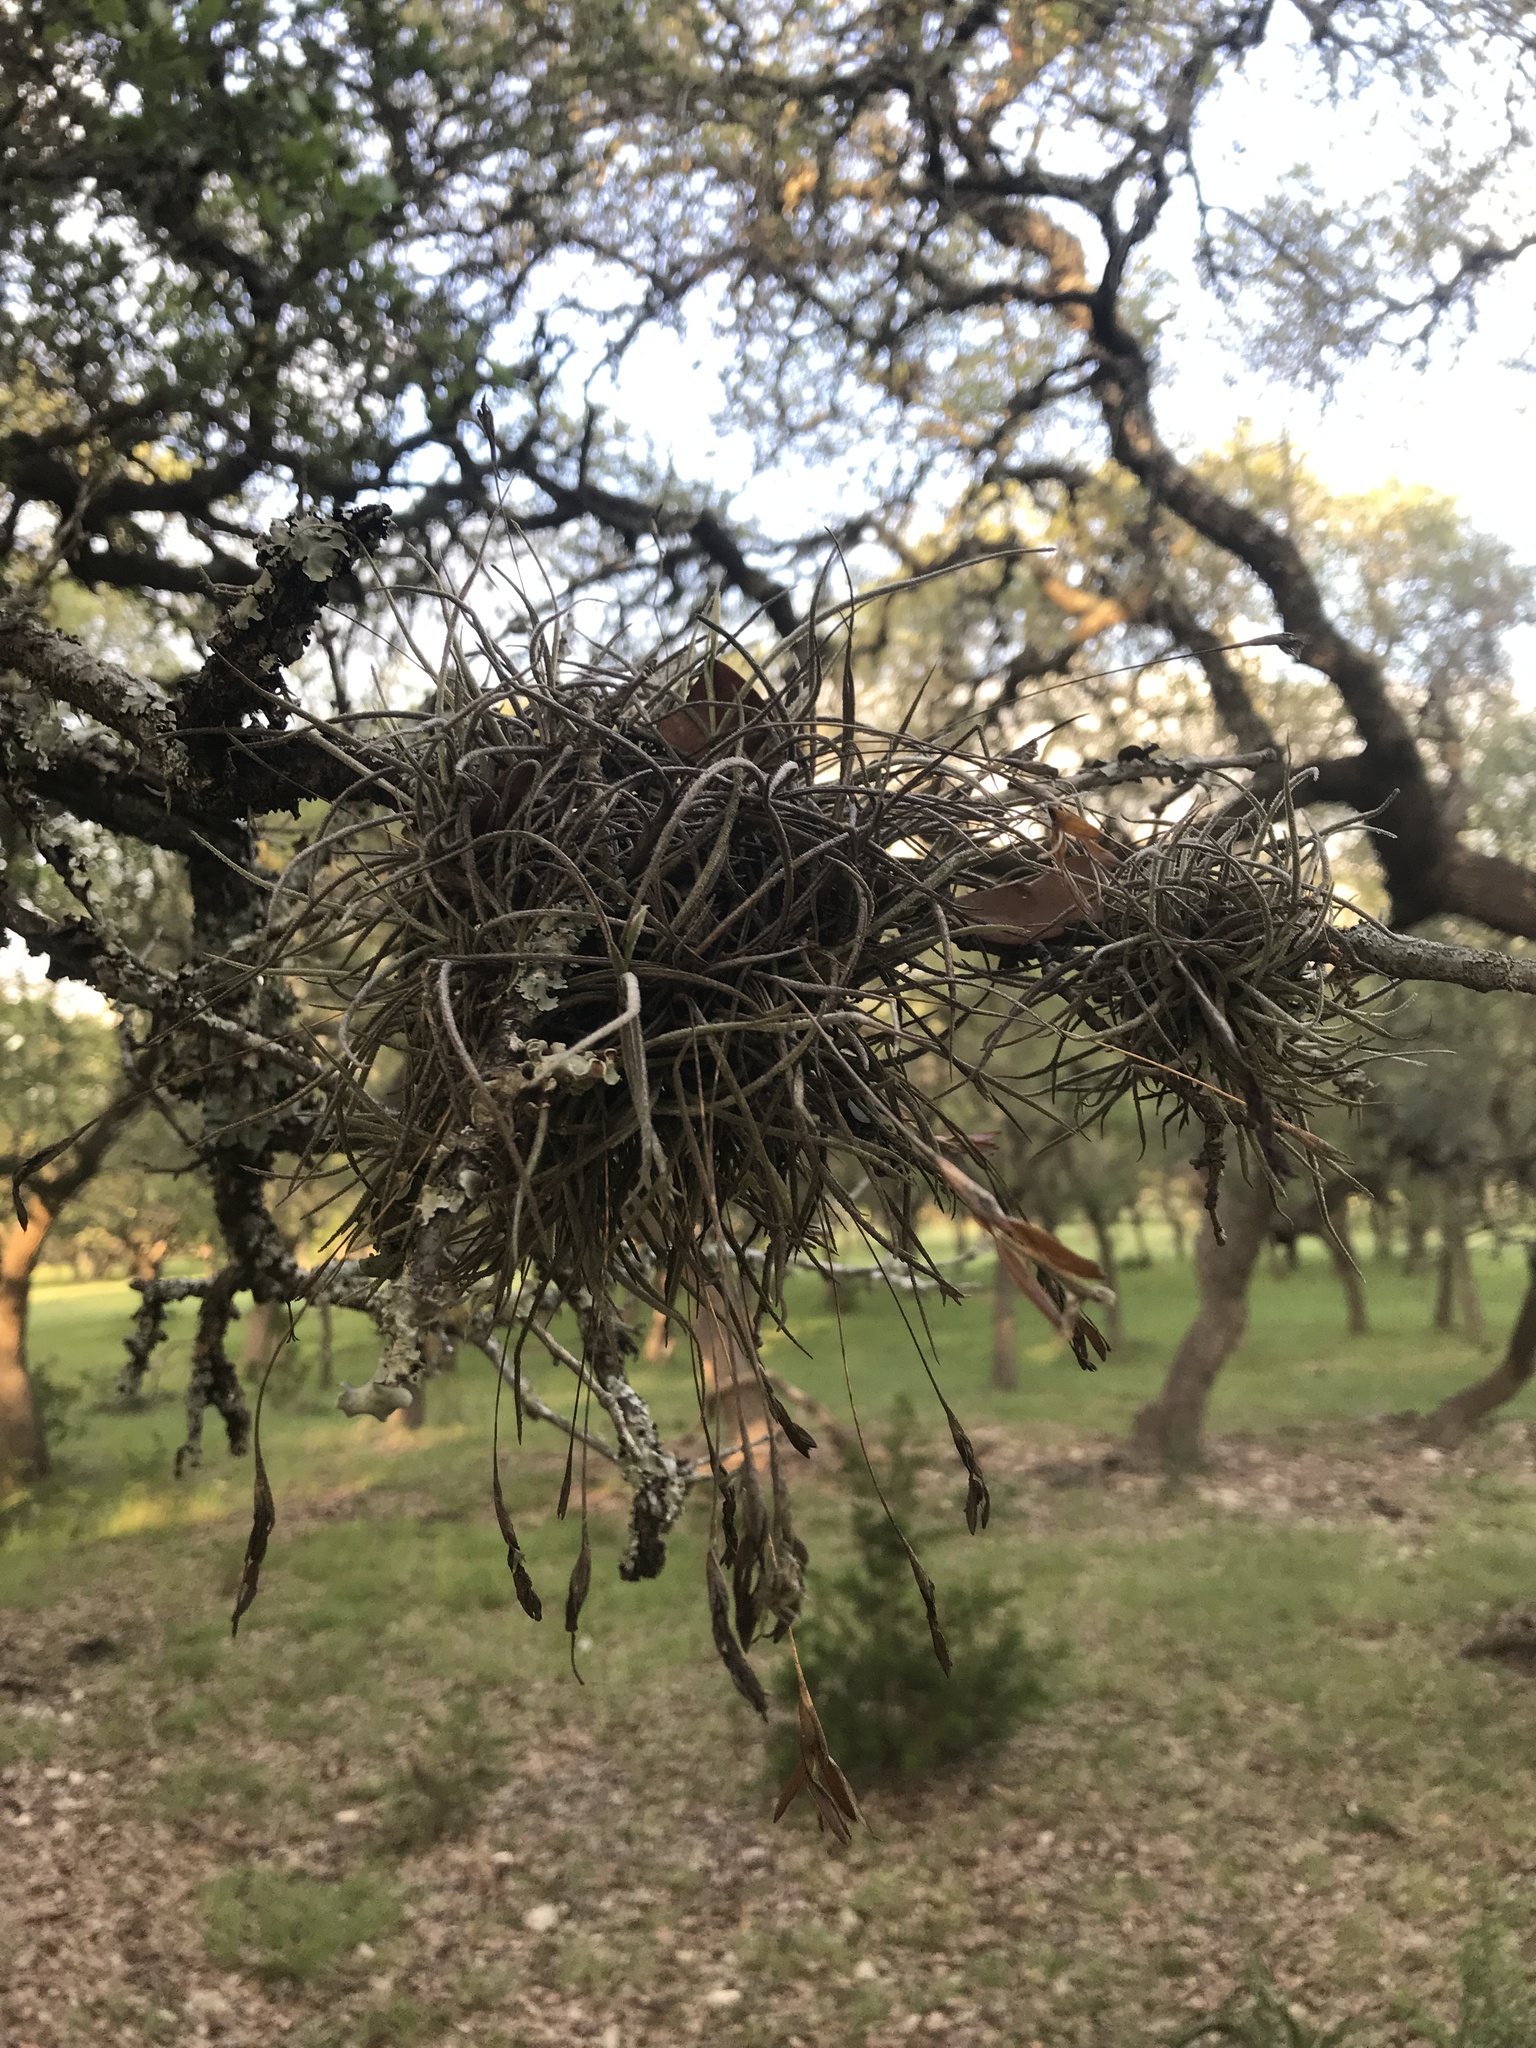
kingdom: Plantae
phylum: Tracheophyta
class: Liliopsida
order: Poales
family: Bromeliaceae
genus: Tillandsia
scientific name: Tillandsia recurvata
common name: Small ballmoss
